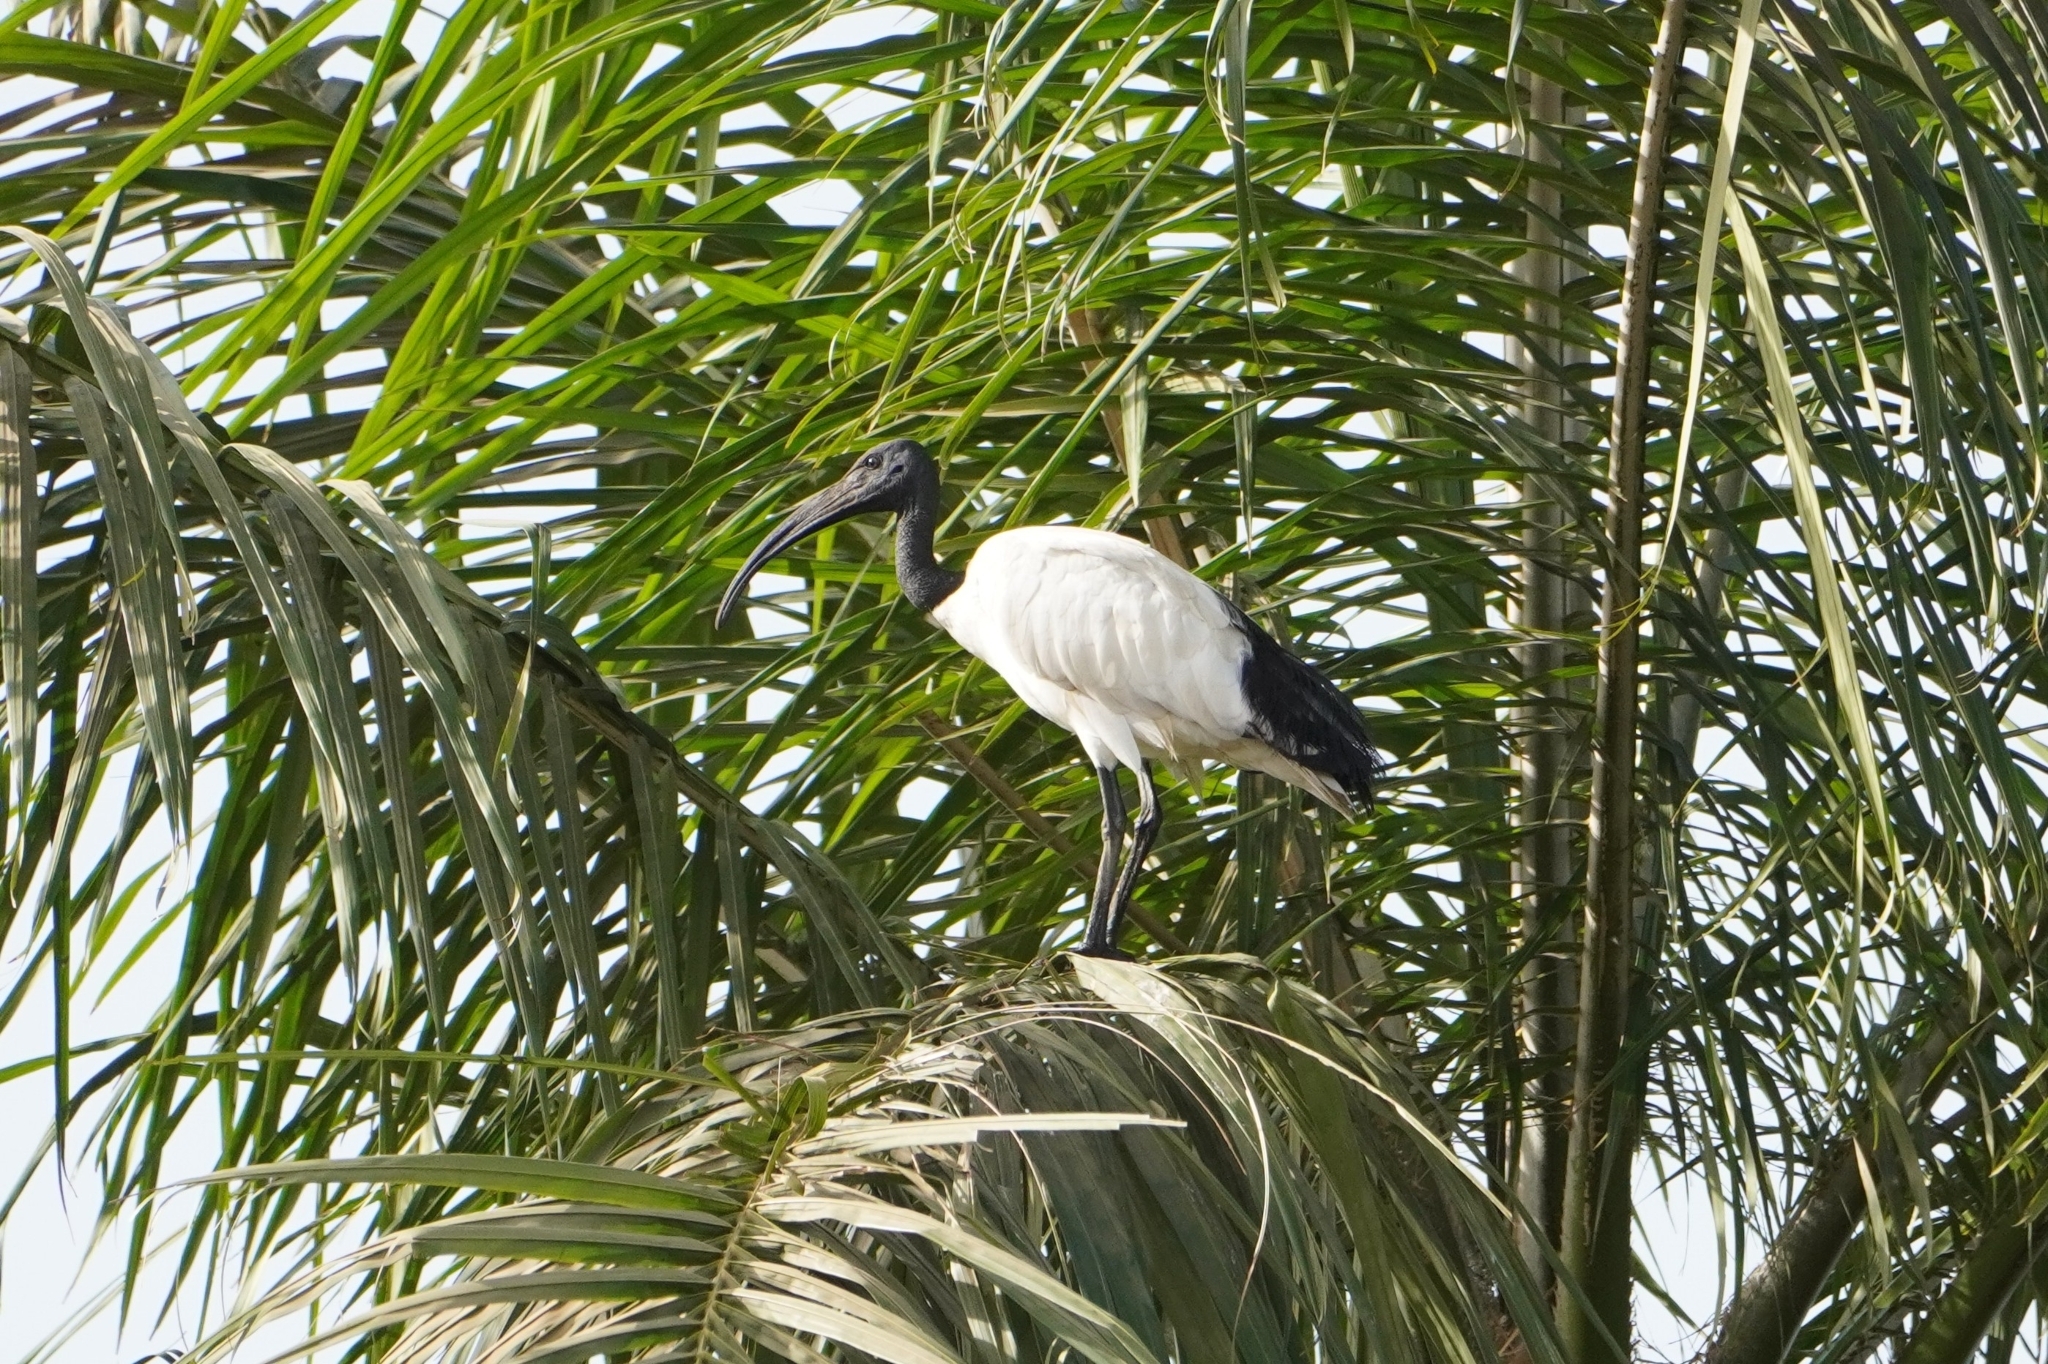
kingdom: Animalia
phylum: Chordata
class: Aves
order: Pelecaniformes
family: Threskiornithidae
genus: Threskiornis
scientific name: Threskiornis aethiopicus
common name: Sacred ibis
